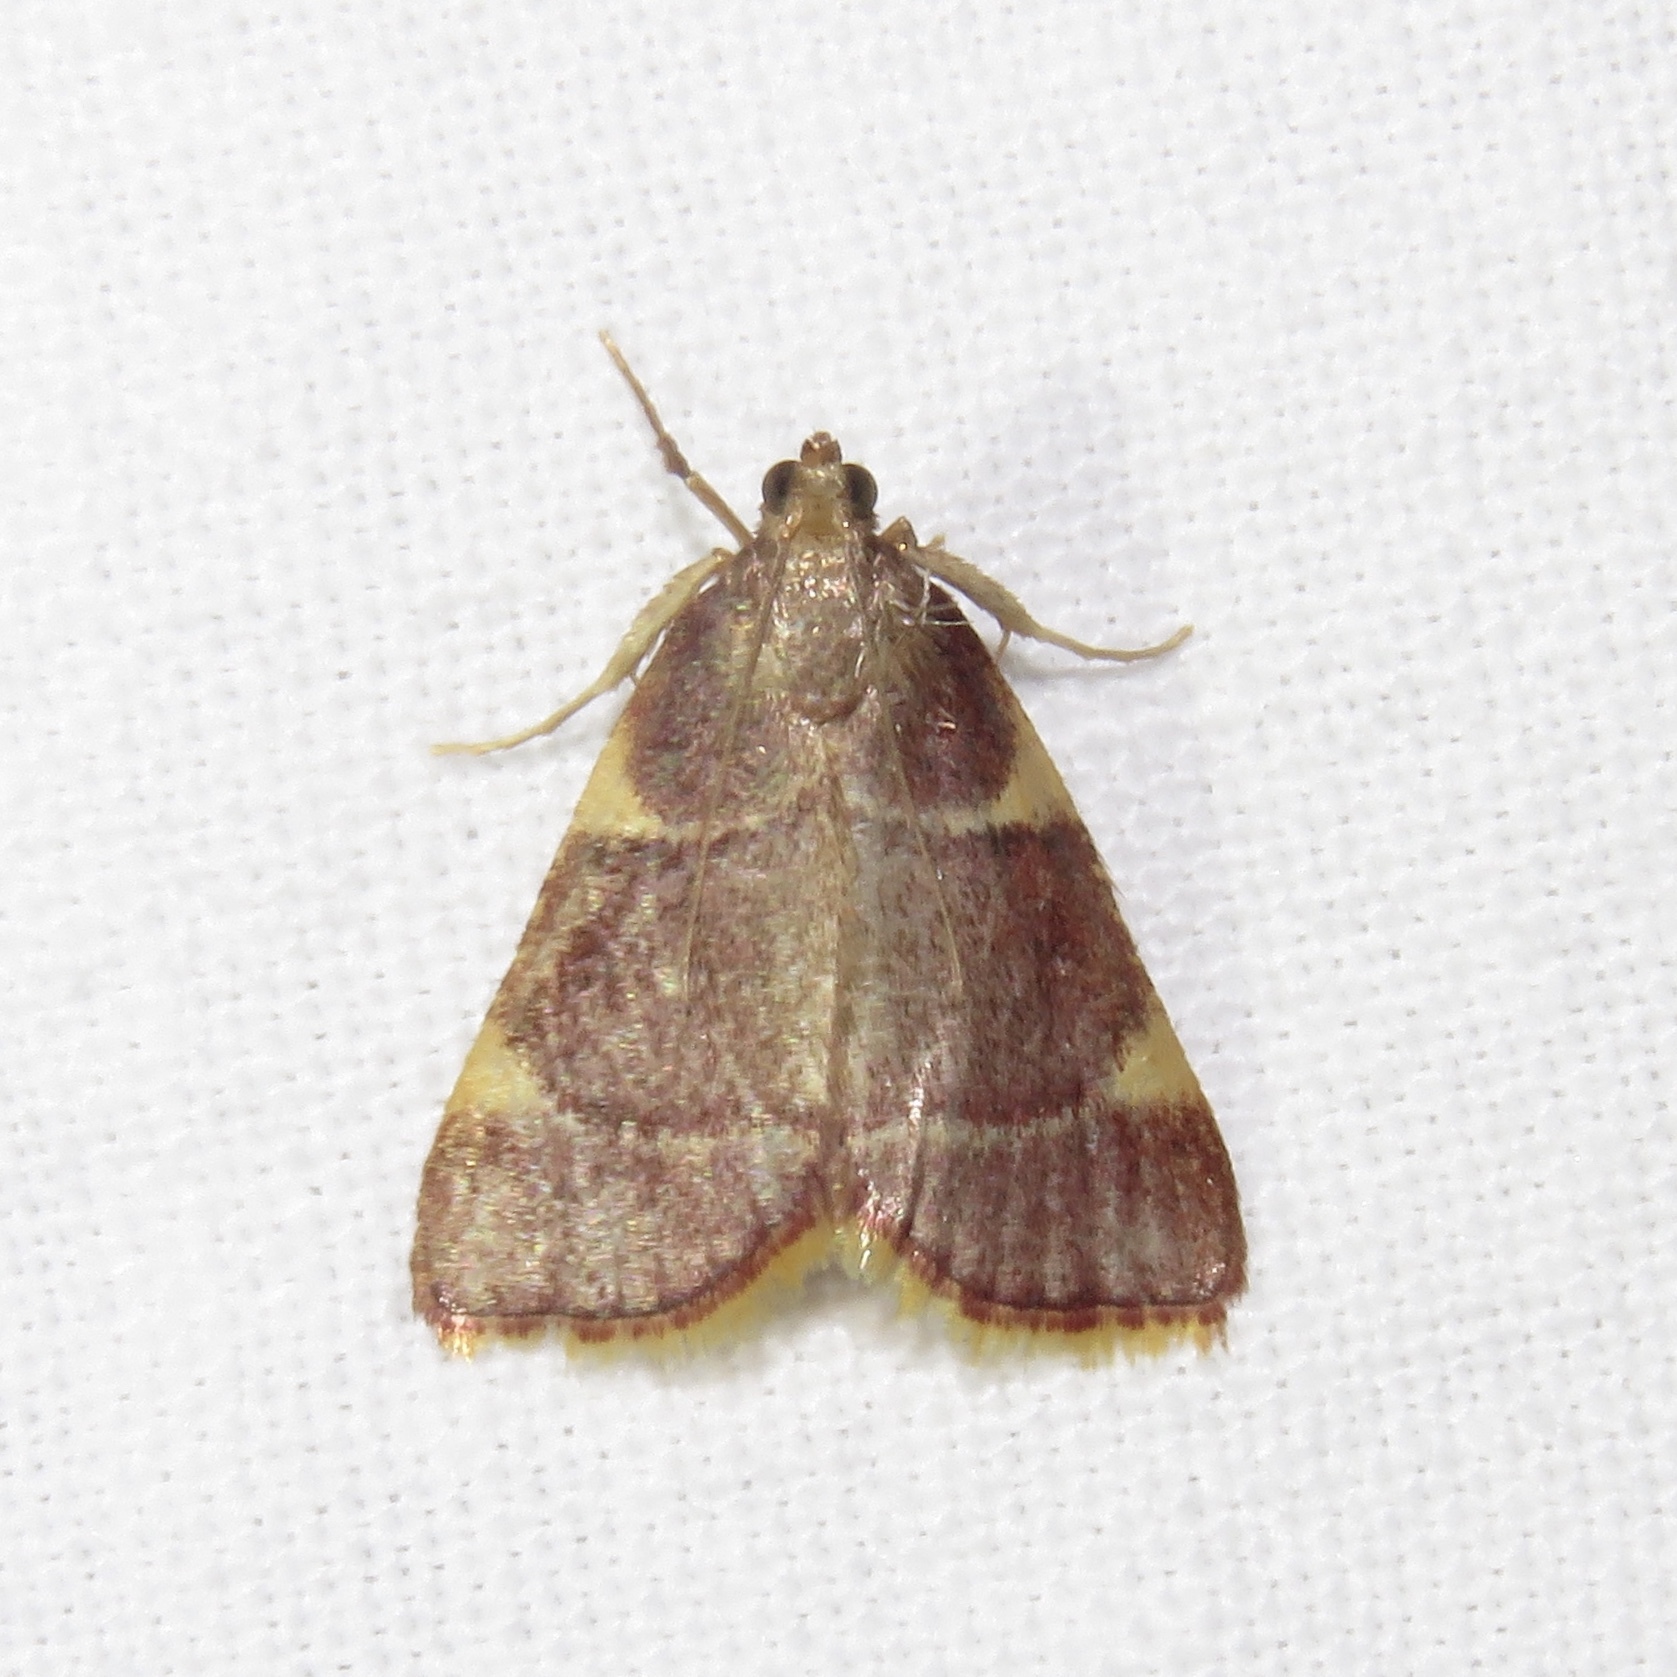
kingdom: Animalia
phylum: Arthropoda
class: Insecta
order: Lepidoptera
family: Pyralidae
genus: Hypsopygia
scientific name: Hypsopygia olinalis
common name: Yellow-fringed dolichomia moth
